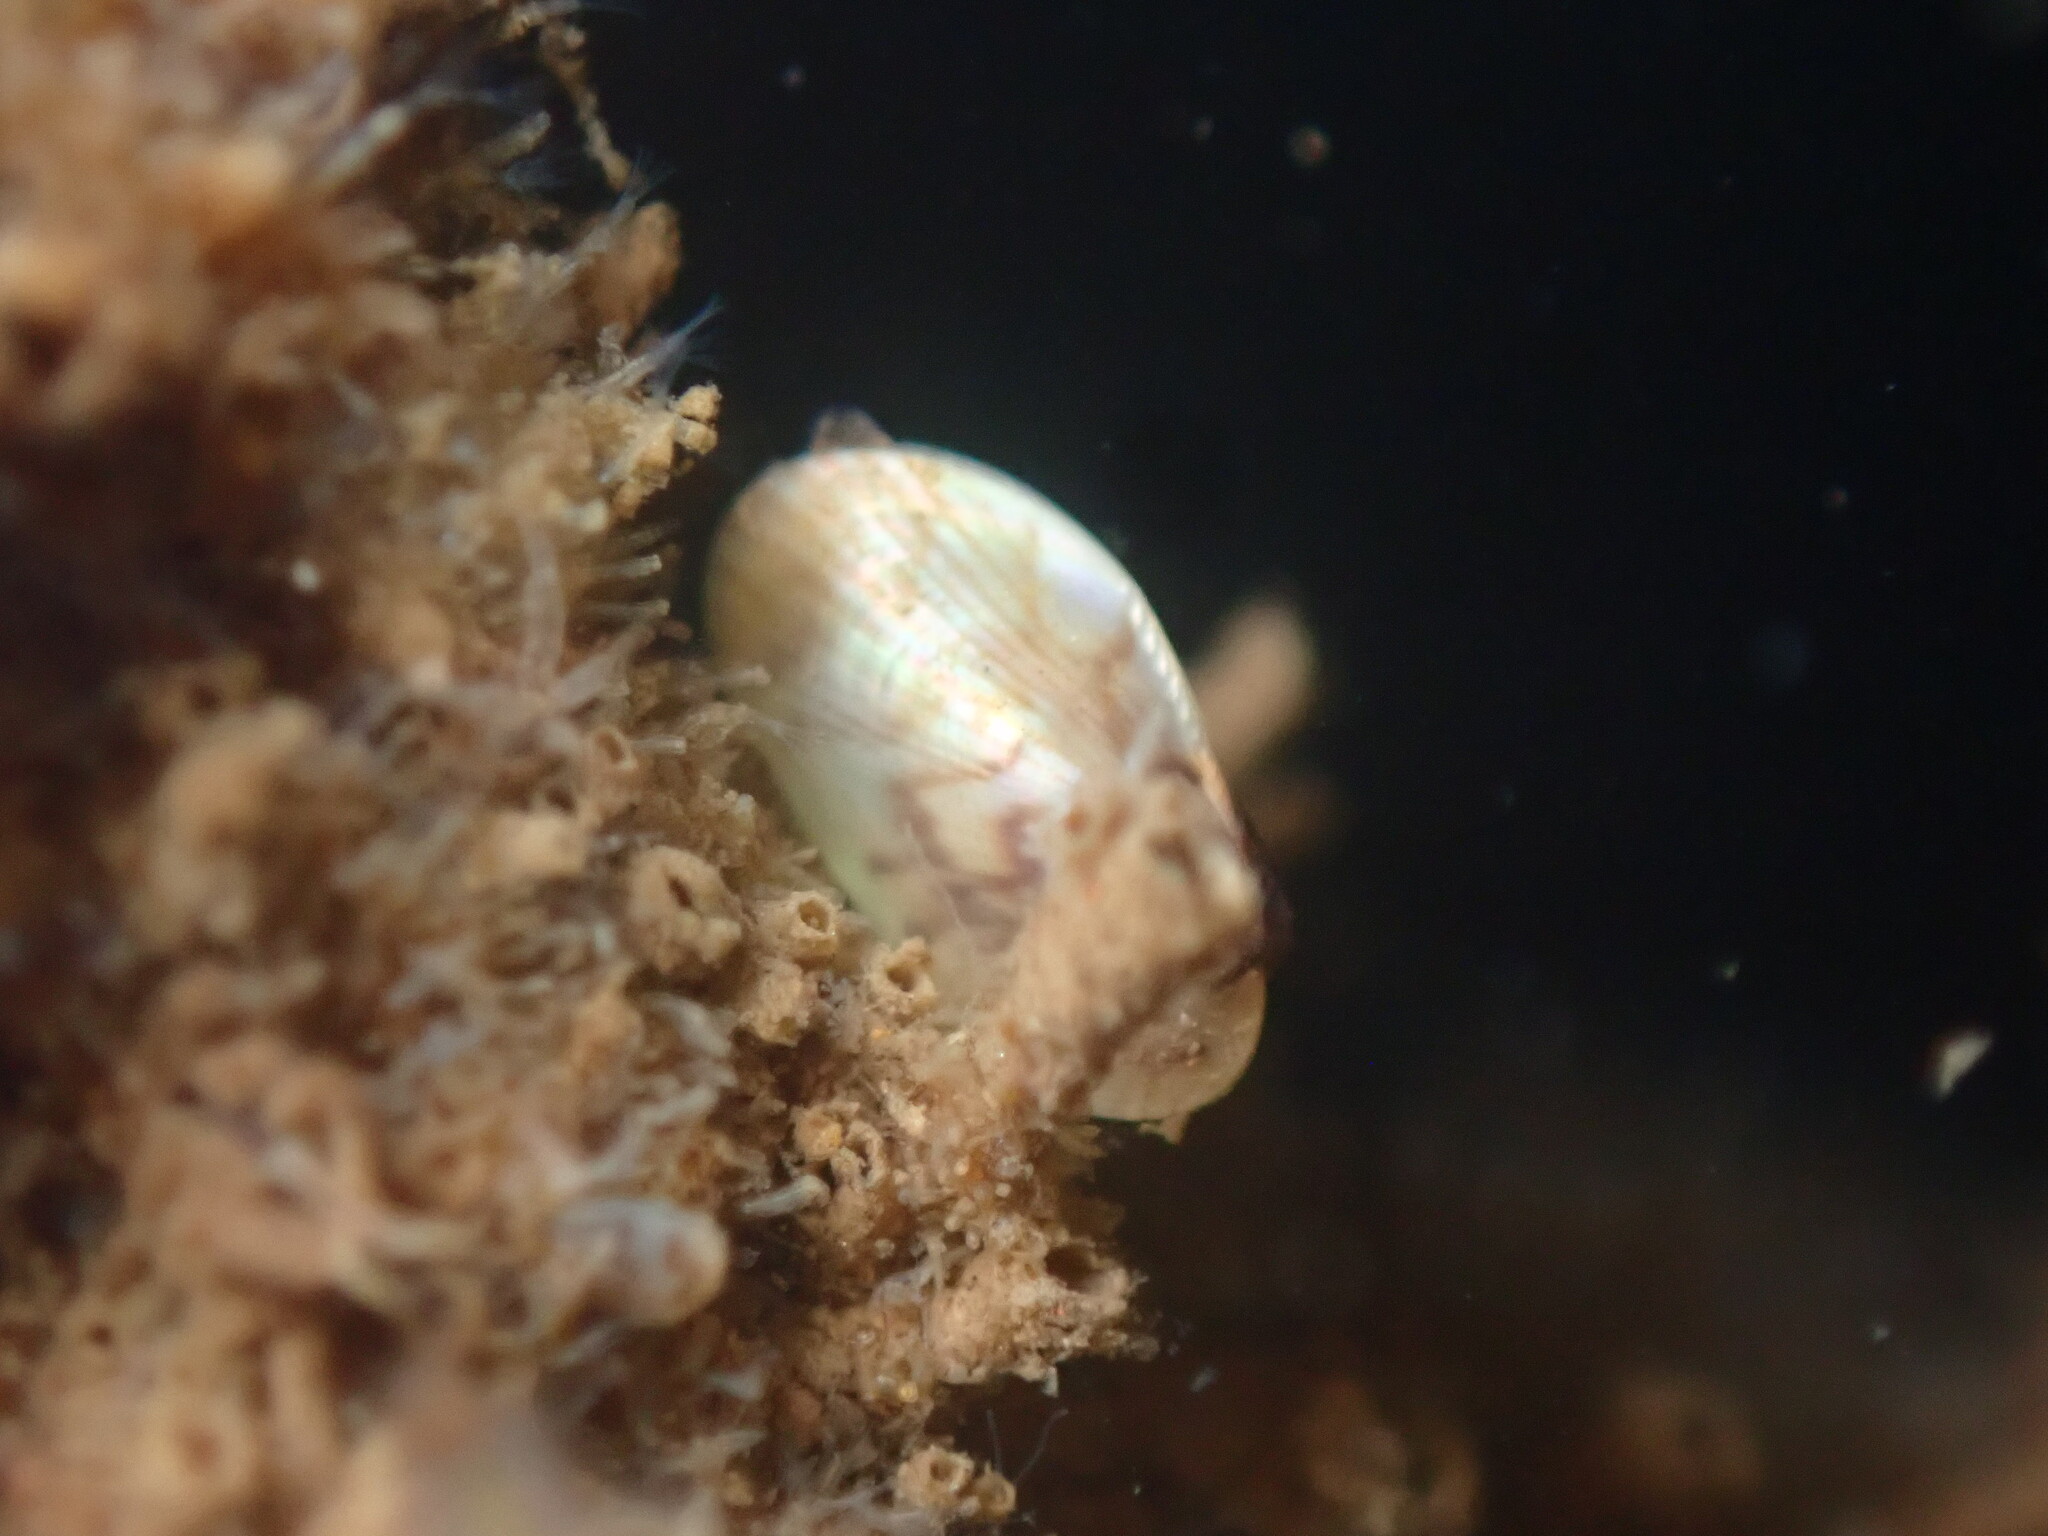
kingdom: Animalia
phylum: Mollusca
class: Bivalvia
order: Mytilida
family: Mytilidae
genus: Arcuatula
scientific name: Arcuatula senhousia
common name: Asian mussel
